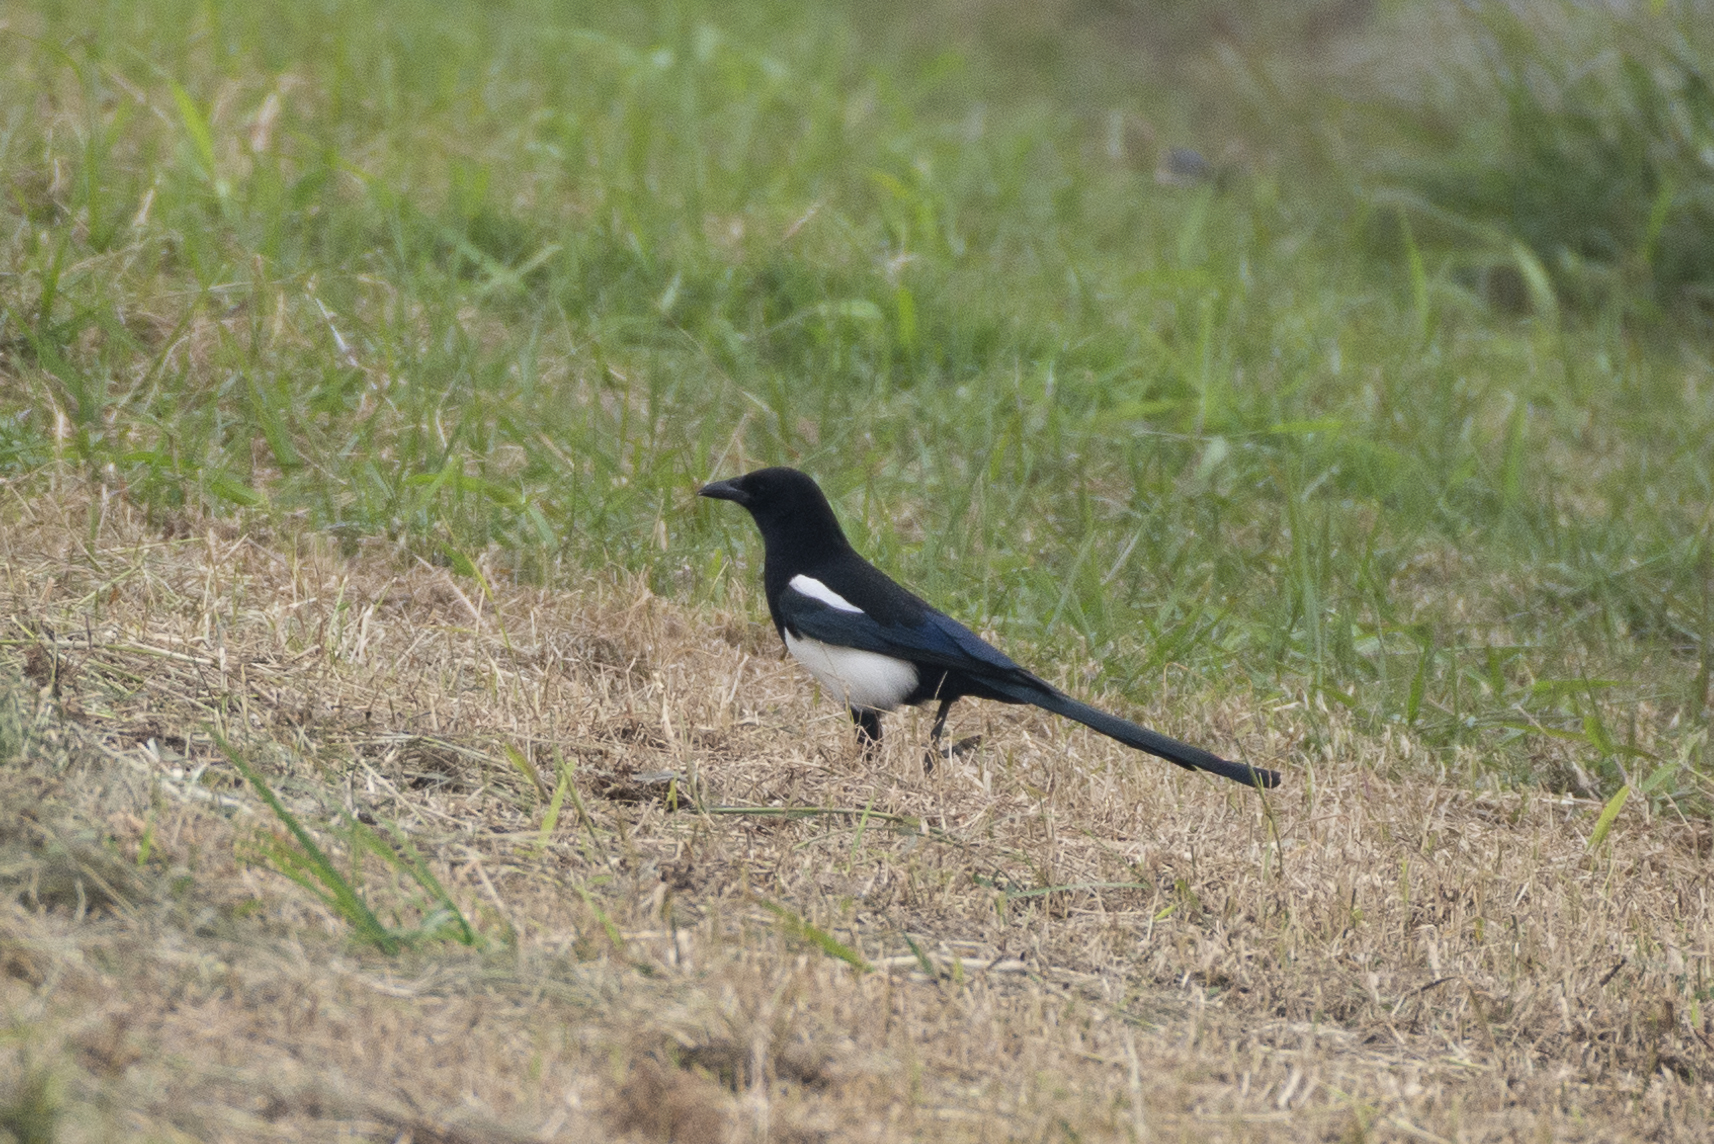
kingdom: Animalia
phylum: Chordata
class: Aves
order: Passeriformes
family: Corvidae
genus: Pica
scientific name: Pica serica
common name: Oriental magpie
